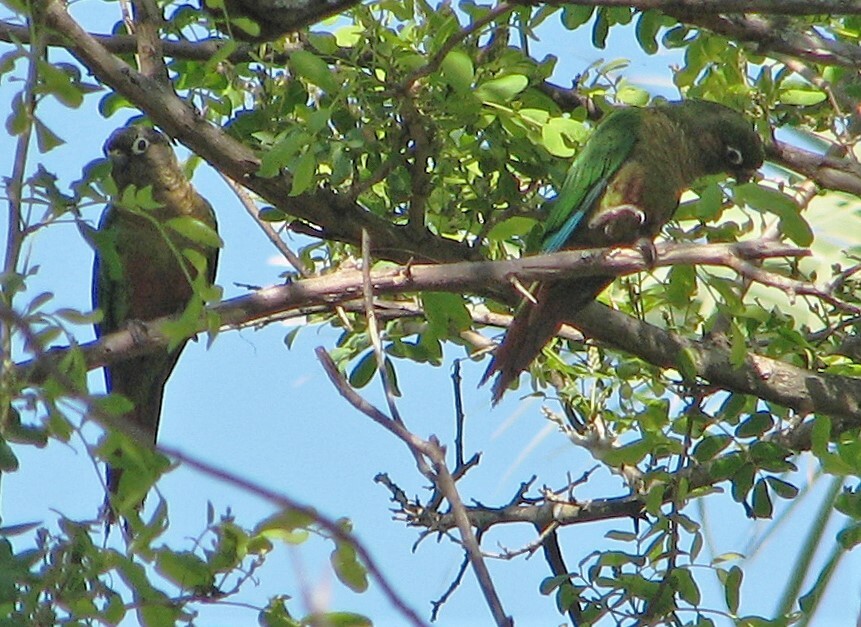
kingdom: Animalia
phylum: Chordata
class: Aves
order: Psittaciformes
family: Psittacidae
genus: Pyrrhura
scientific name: Pyrrhura frontalis
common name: Maroon-bellied parakeet
